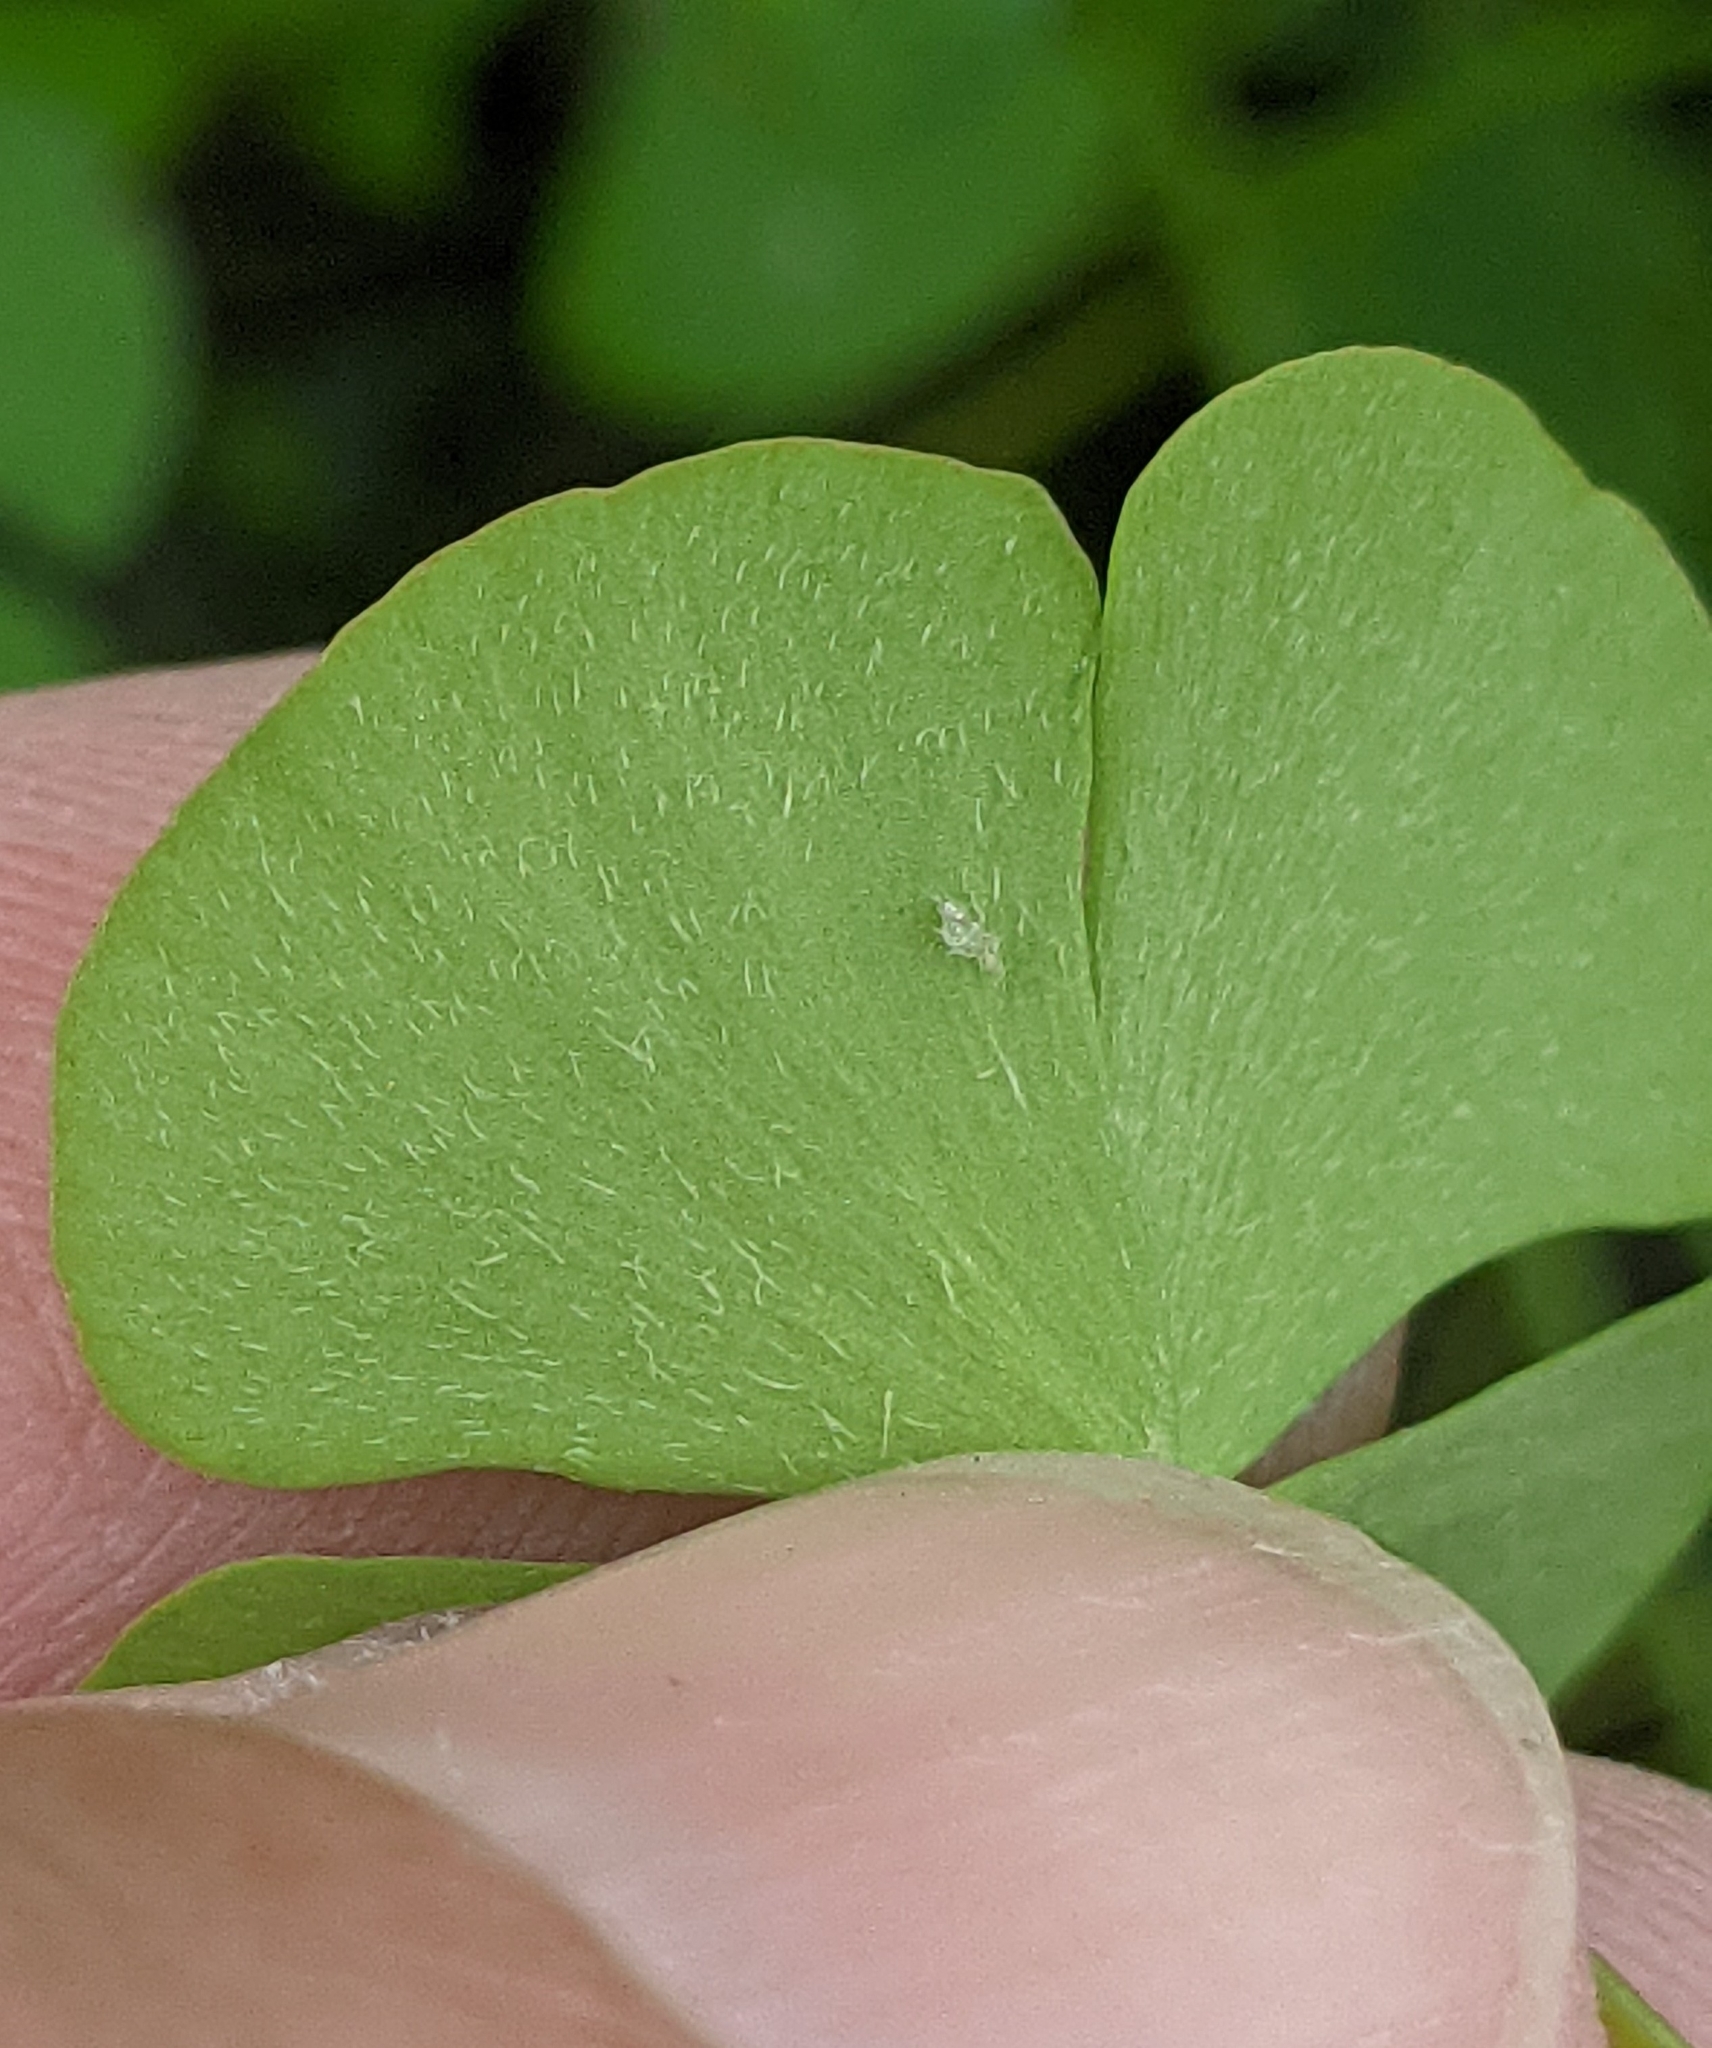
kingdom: Plantae
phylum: Tracheophyta
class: Polypodiopsida
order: Salviniales
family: Marsileaceae
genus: Marsilea
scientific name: Marsilea vestita
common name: Hooked-pepperwort
